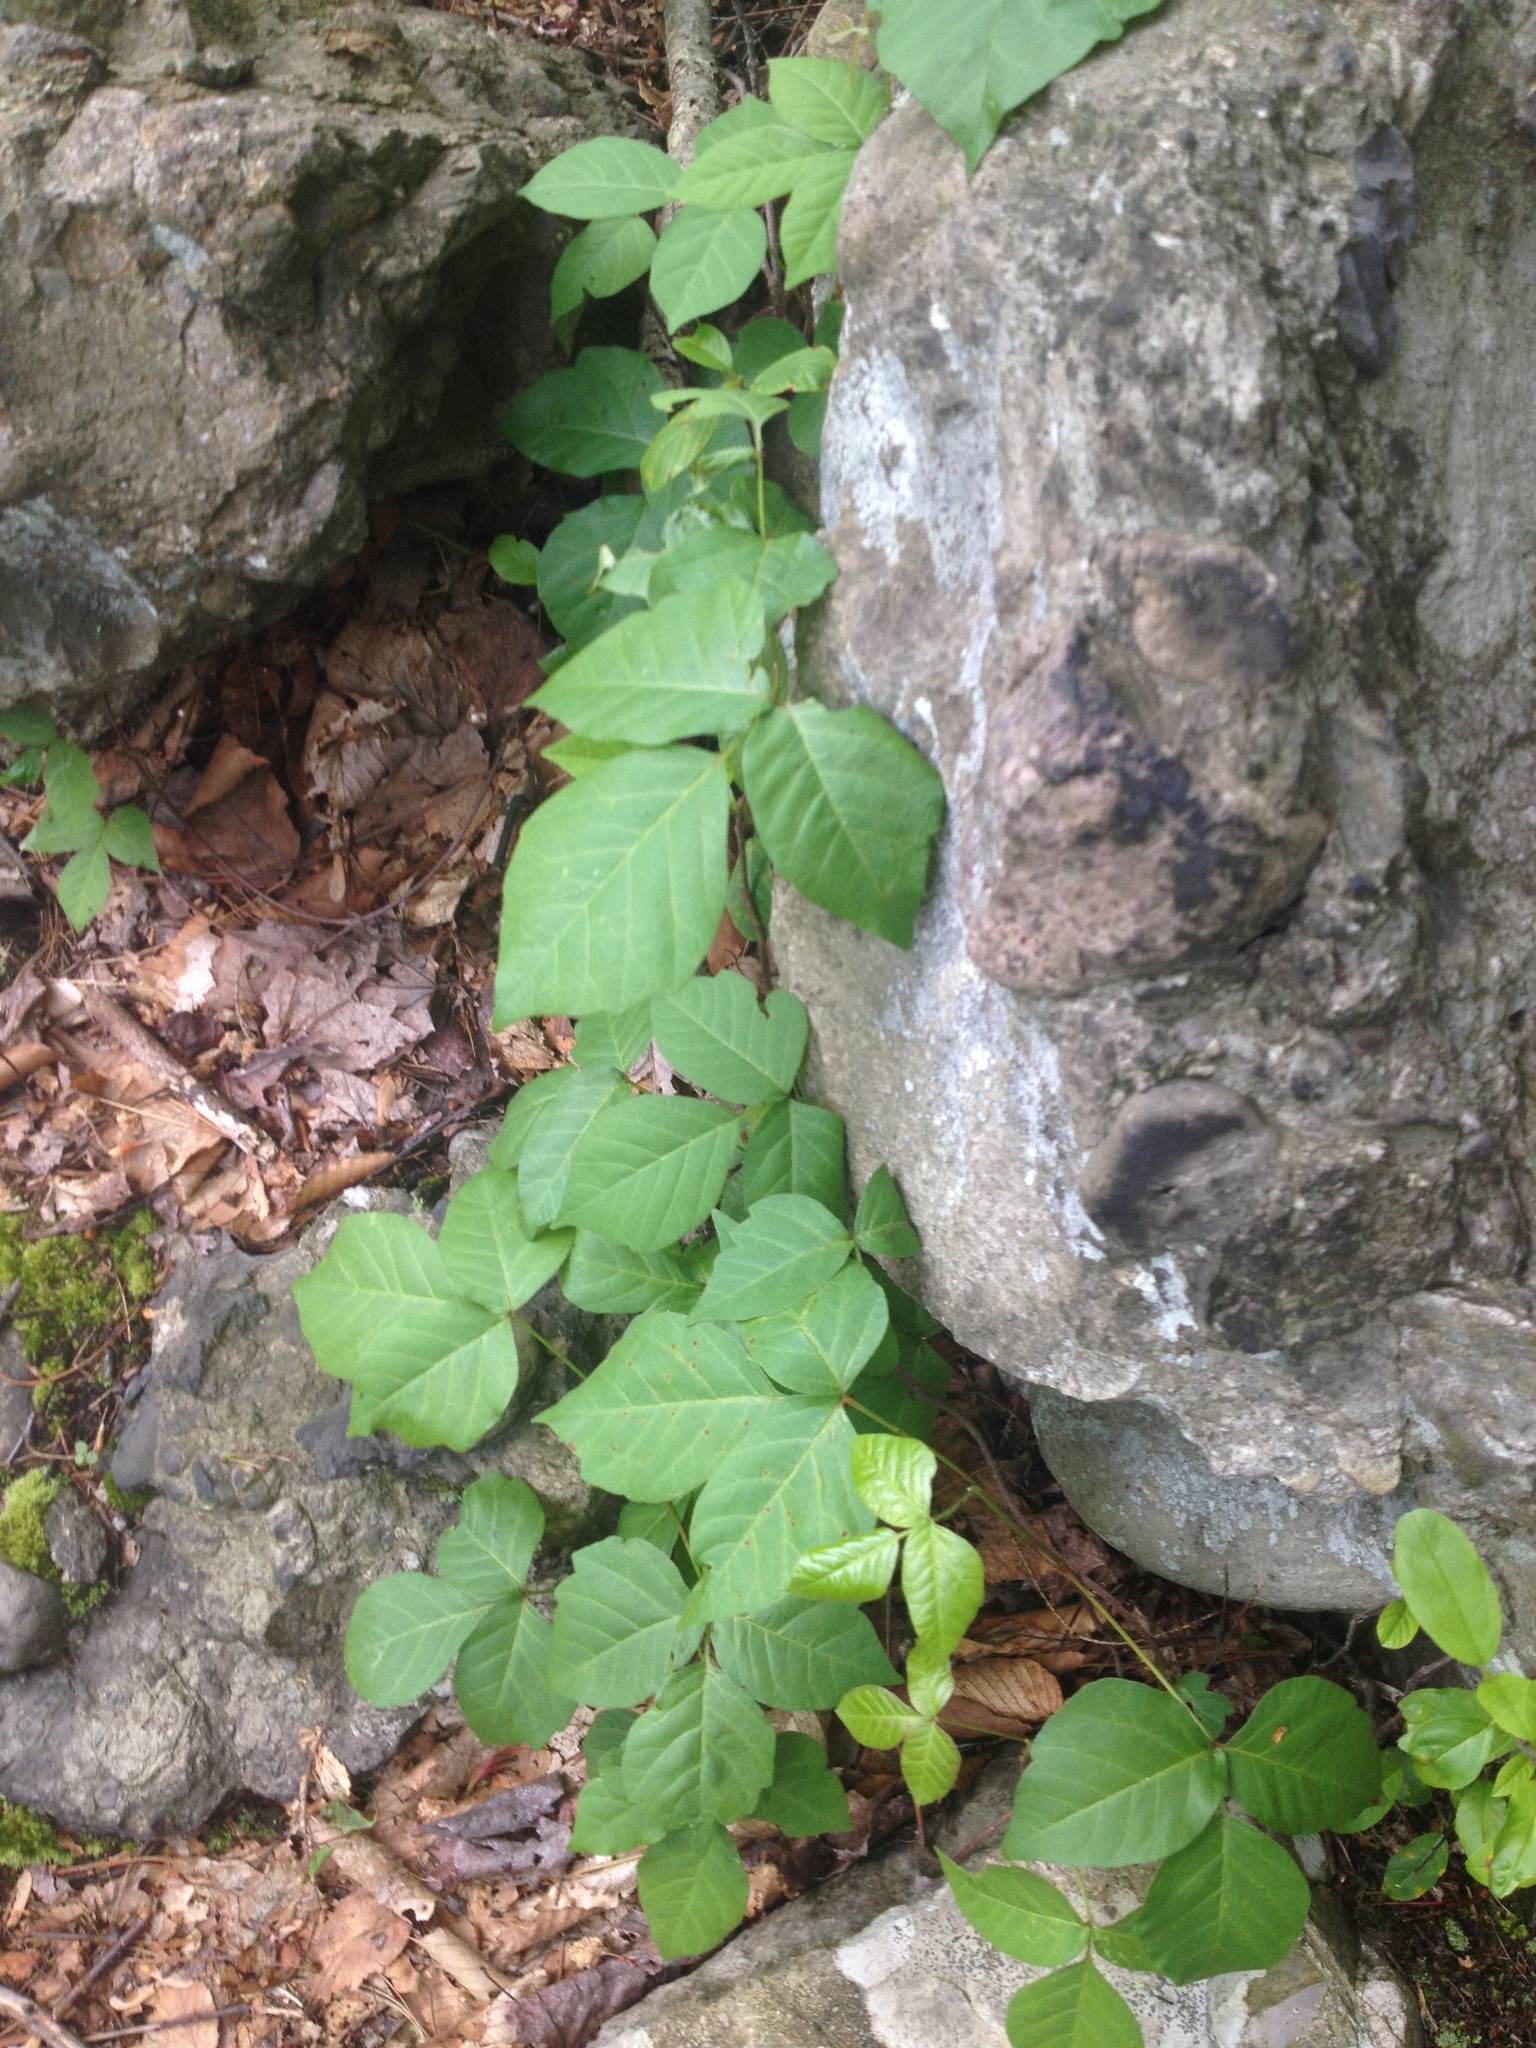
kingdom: Plantae
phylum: Tracheophyta
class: Magnoliopsida
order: Sapindales
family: Anacardiaceae
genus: Toxicodendron
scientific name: Toxicodendron radicans
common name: Poison ivy
